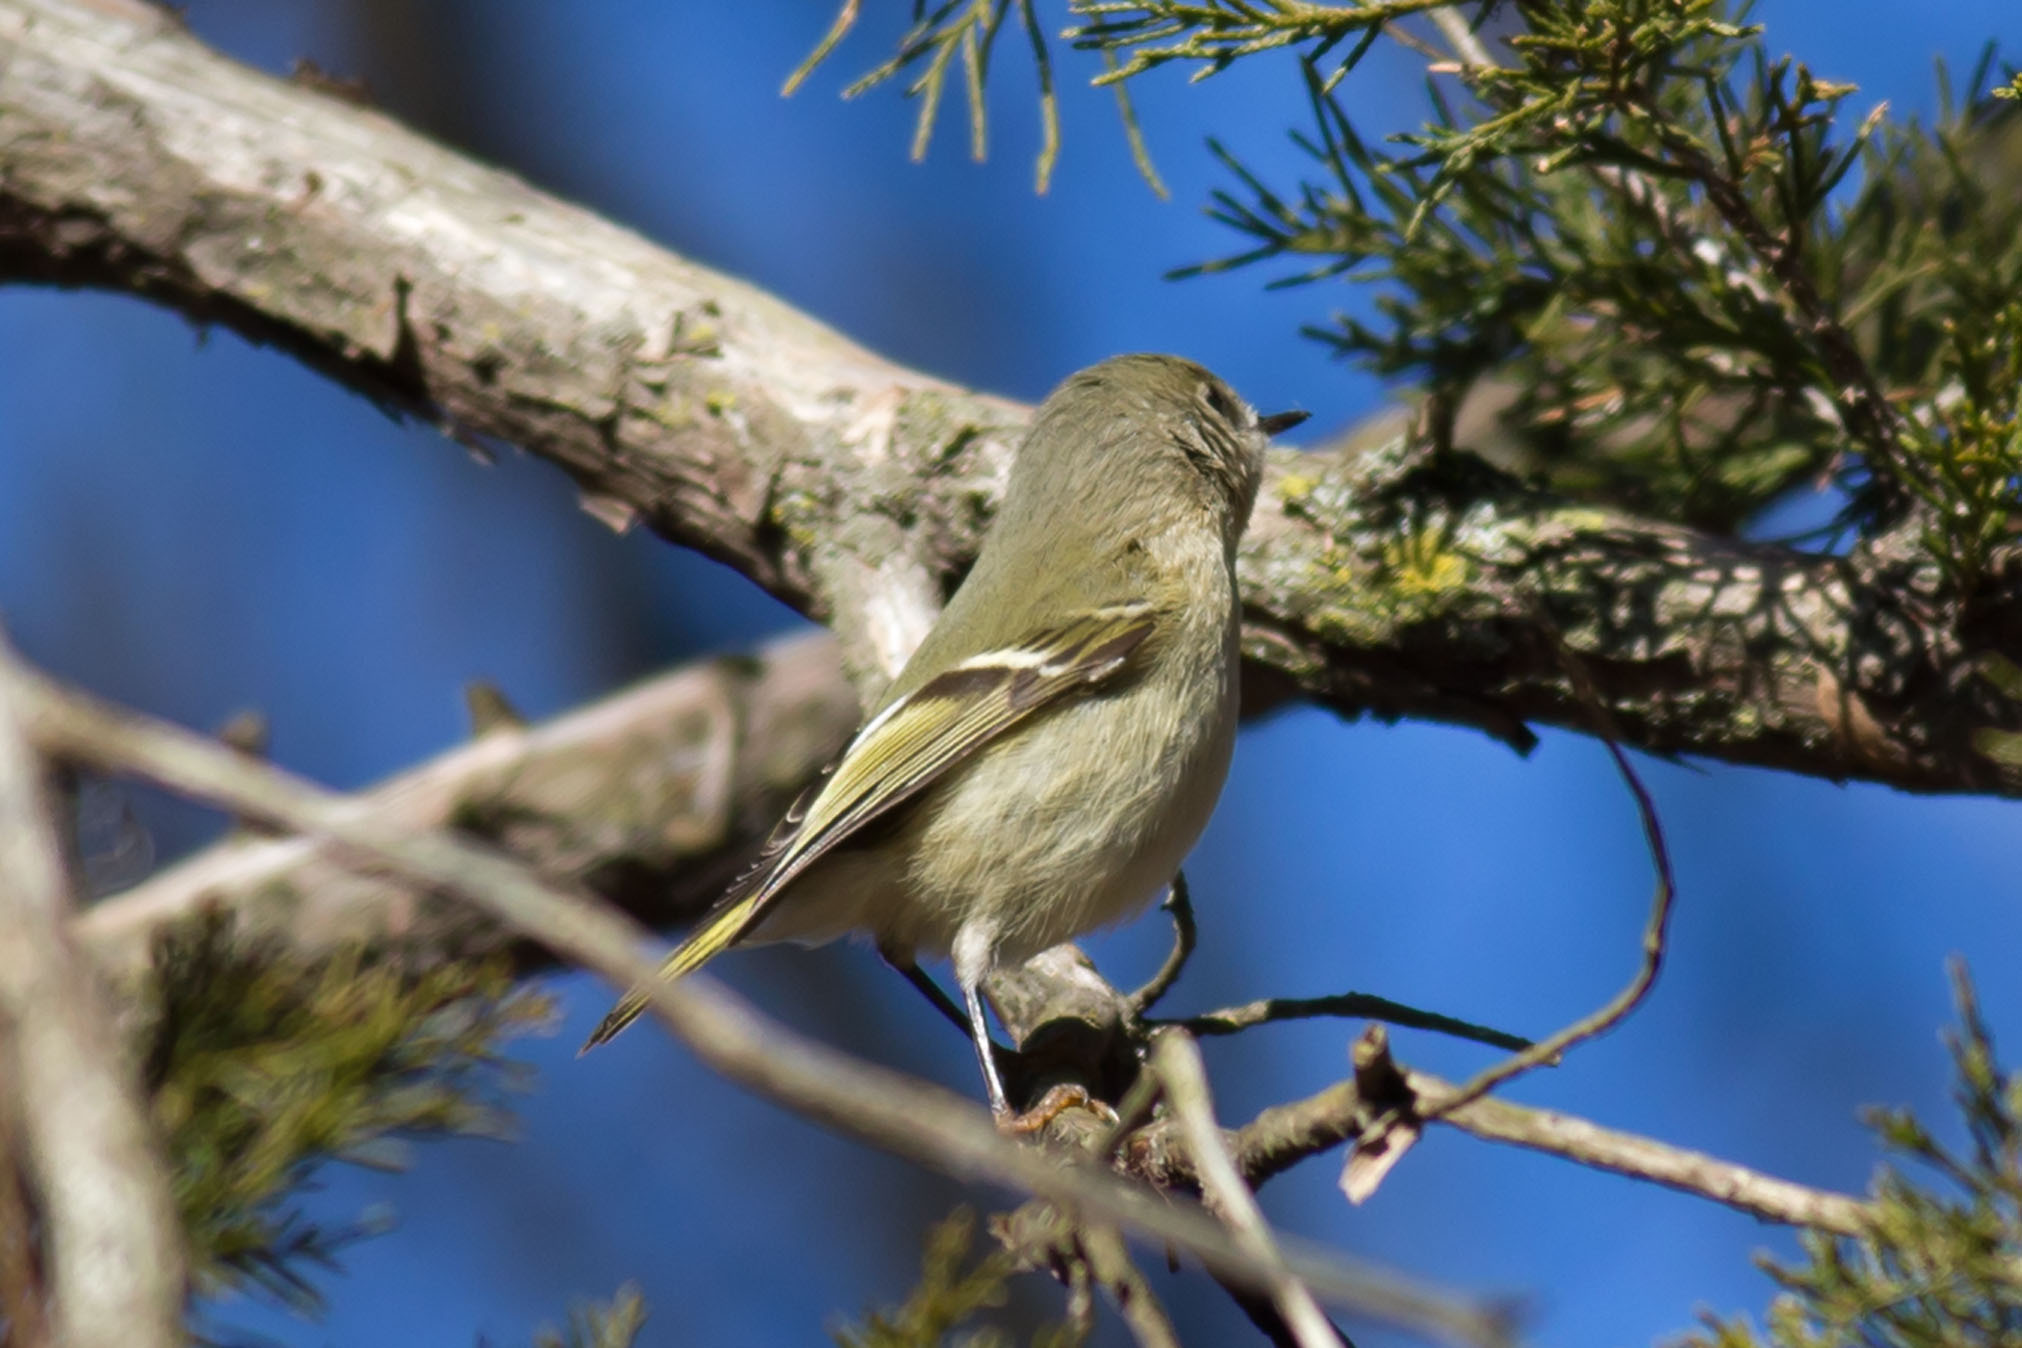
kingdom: Animalia
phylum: Chordata
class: Aves
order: Passeriformes
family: Regulidae
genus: Regulus
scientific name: Regulus calendula
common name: Ruby-crowned kinglet
